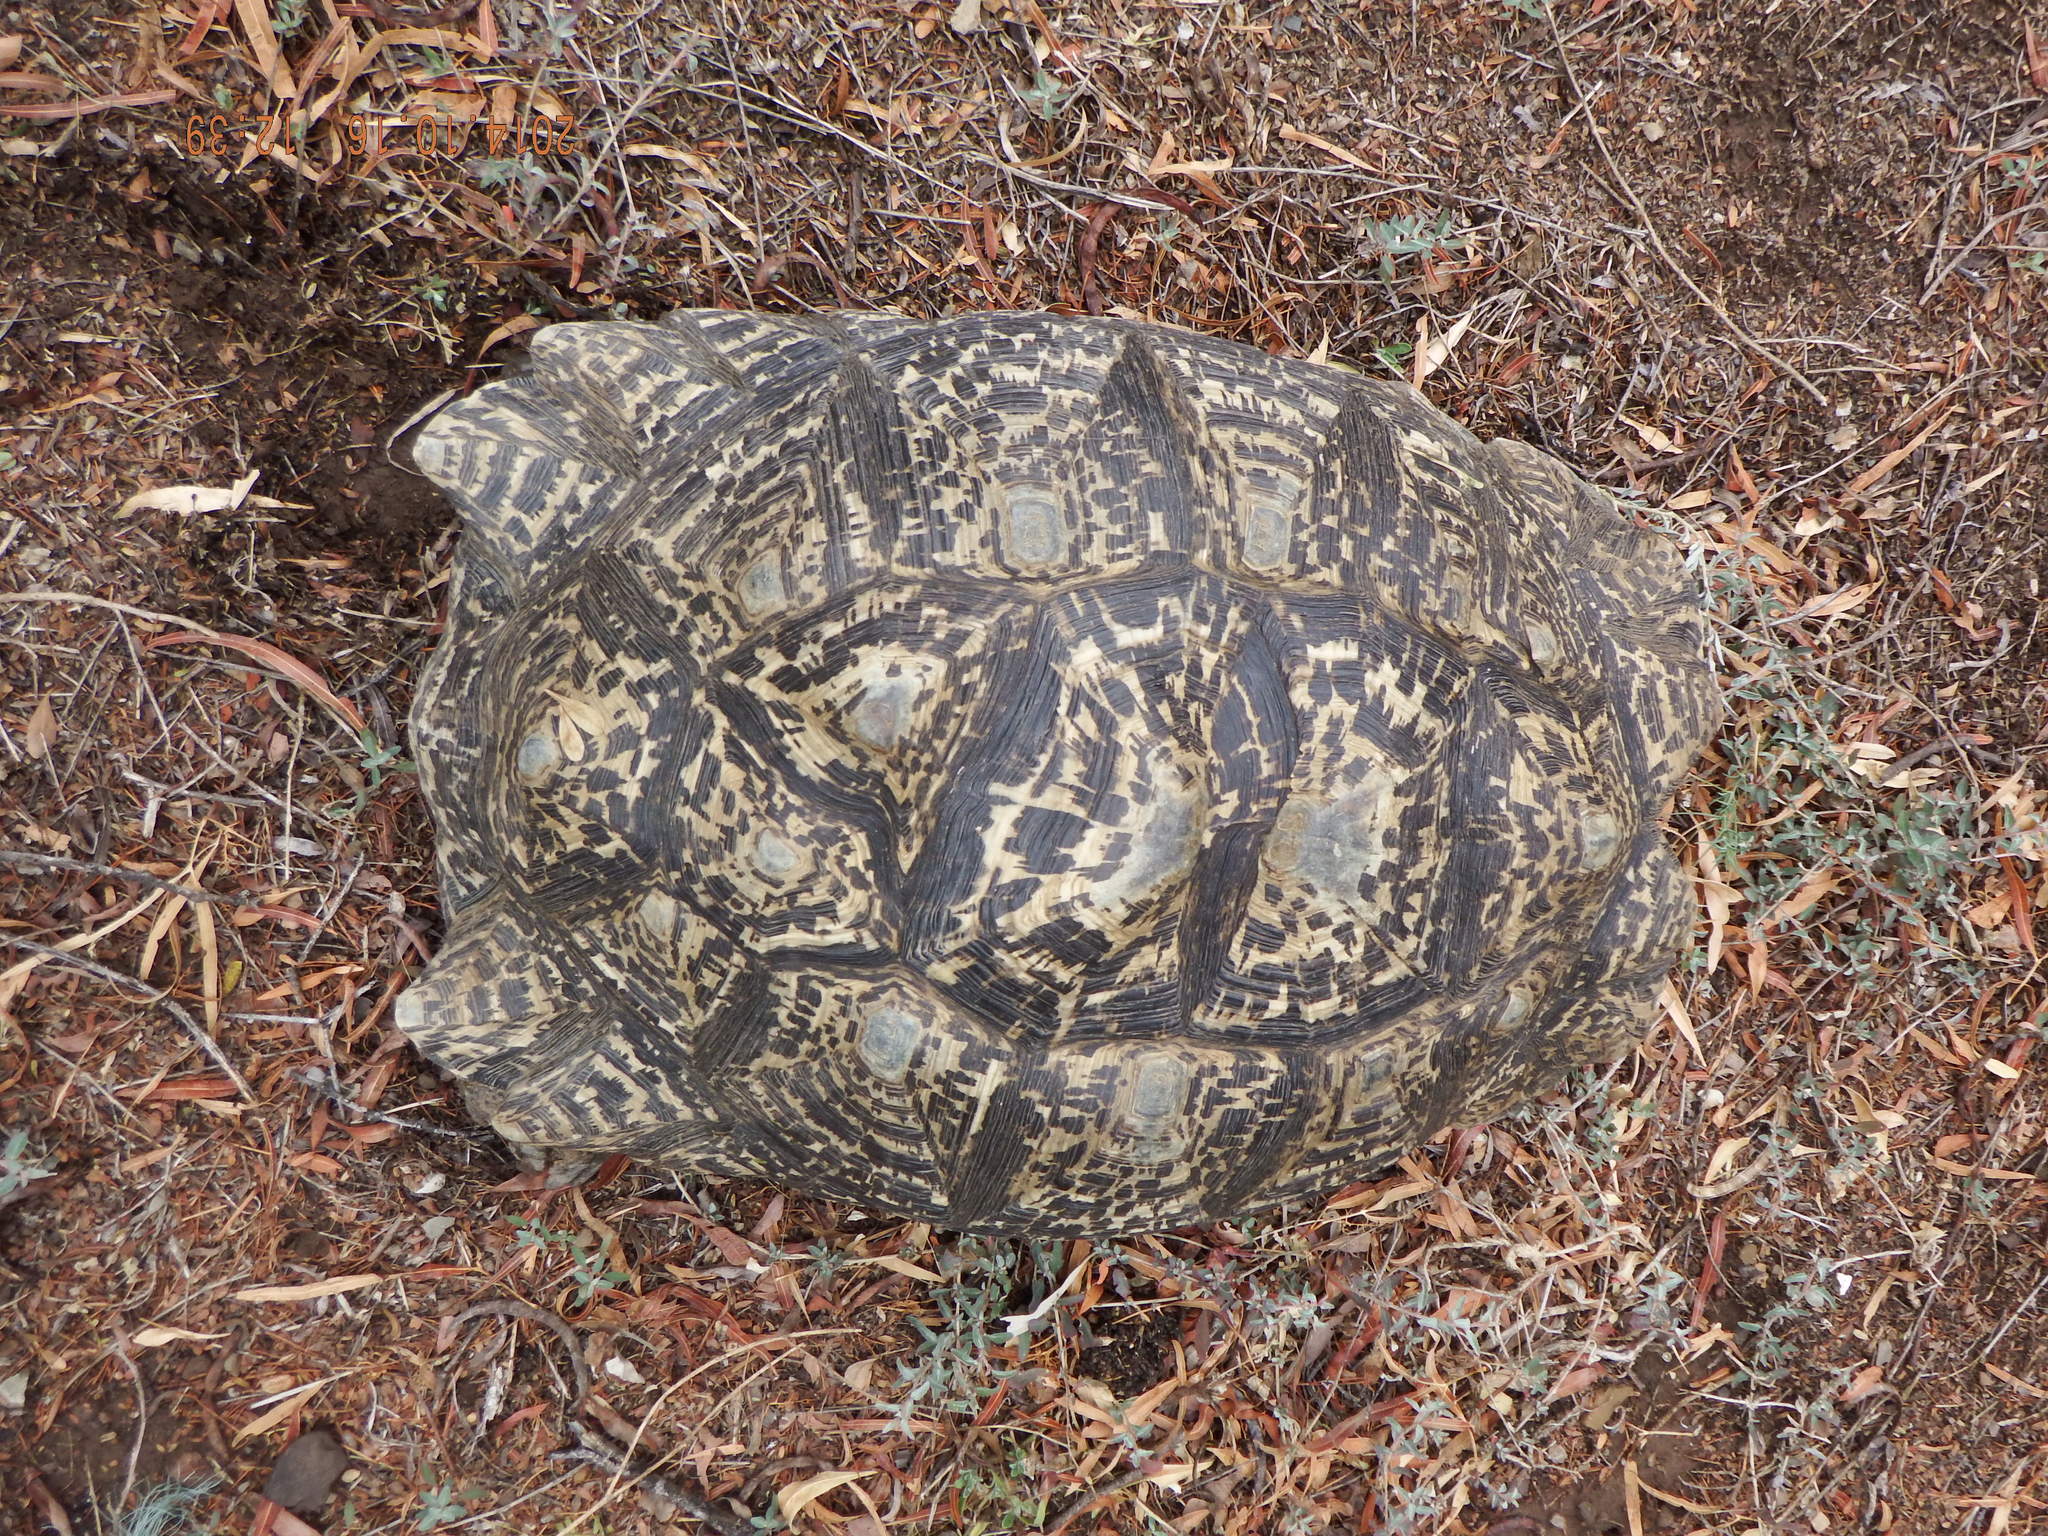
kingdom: Animalia
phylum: Chordata
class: Testudines
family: Testudinidae
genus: Stigmochelys
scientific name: Stigmochelys pardalis
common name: Leopard tortoise
